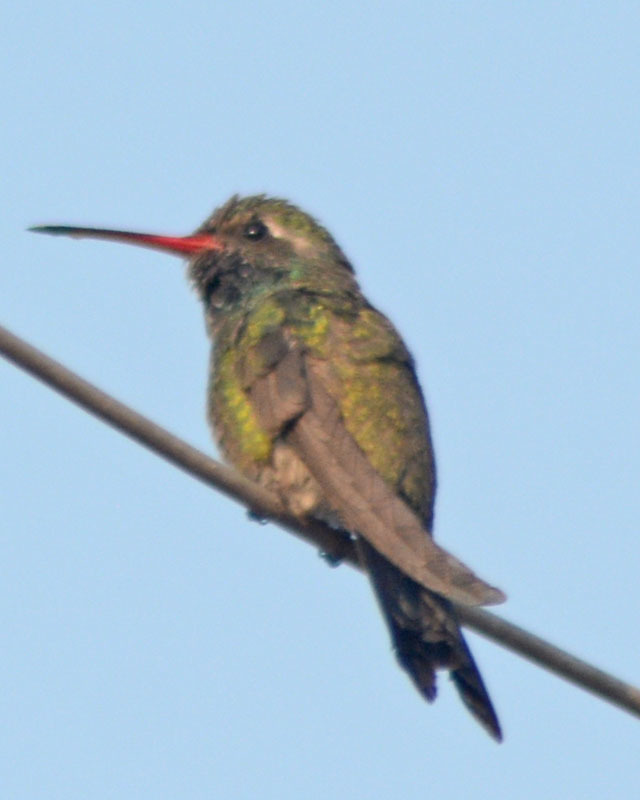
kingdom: Animalia
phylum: Chordata
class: Aves
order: Apodiformes
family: Trochilidae
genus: Cynanthus
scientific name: Cynanthus latirostris
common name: Broad-billed hummingbird
